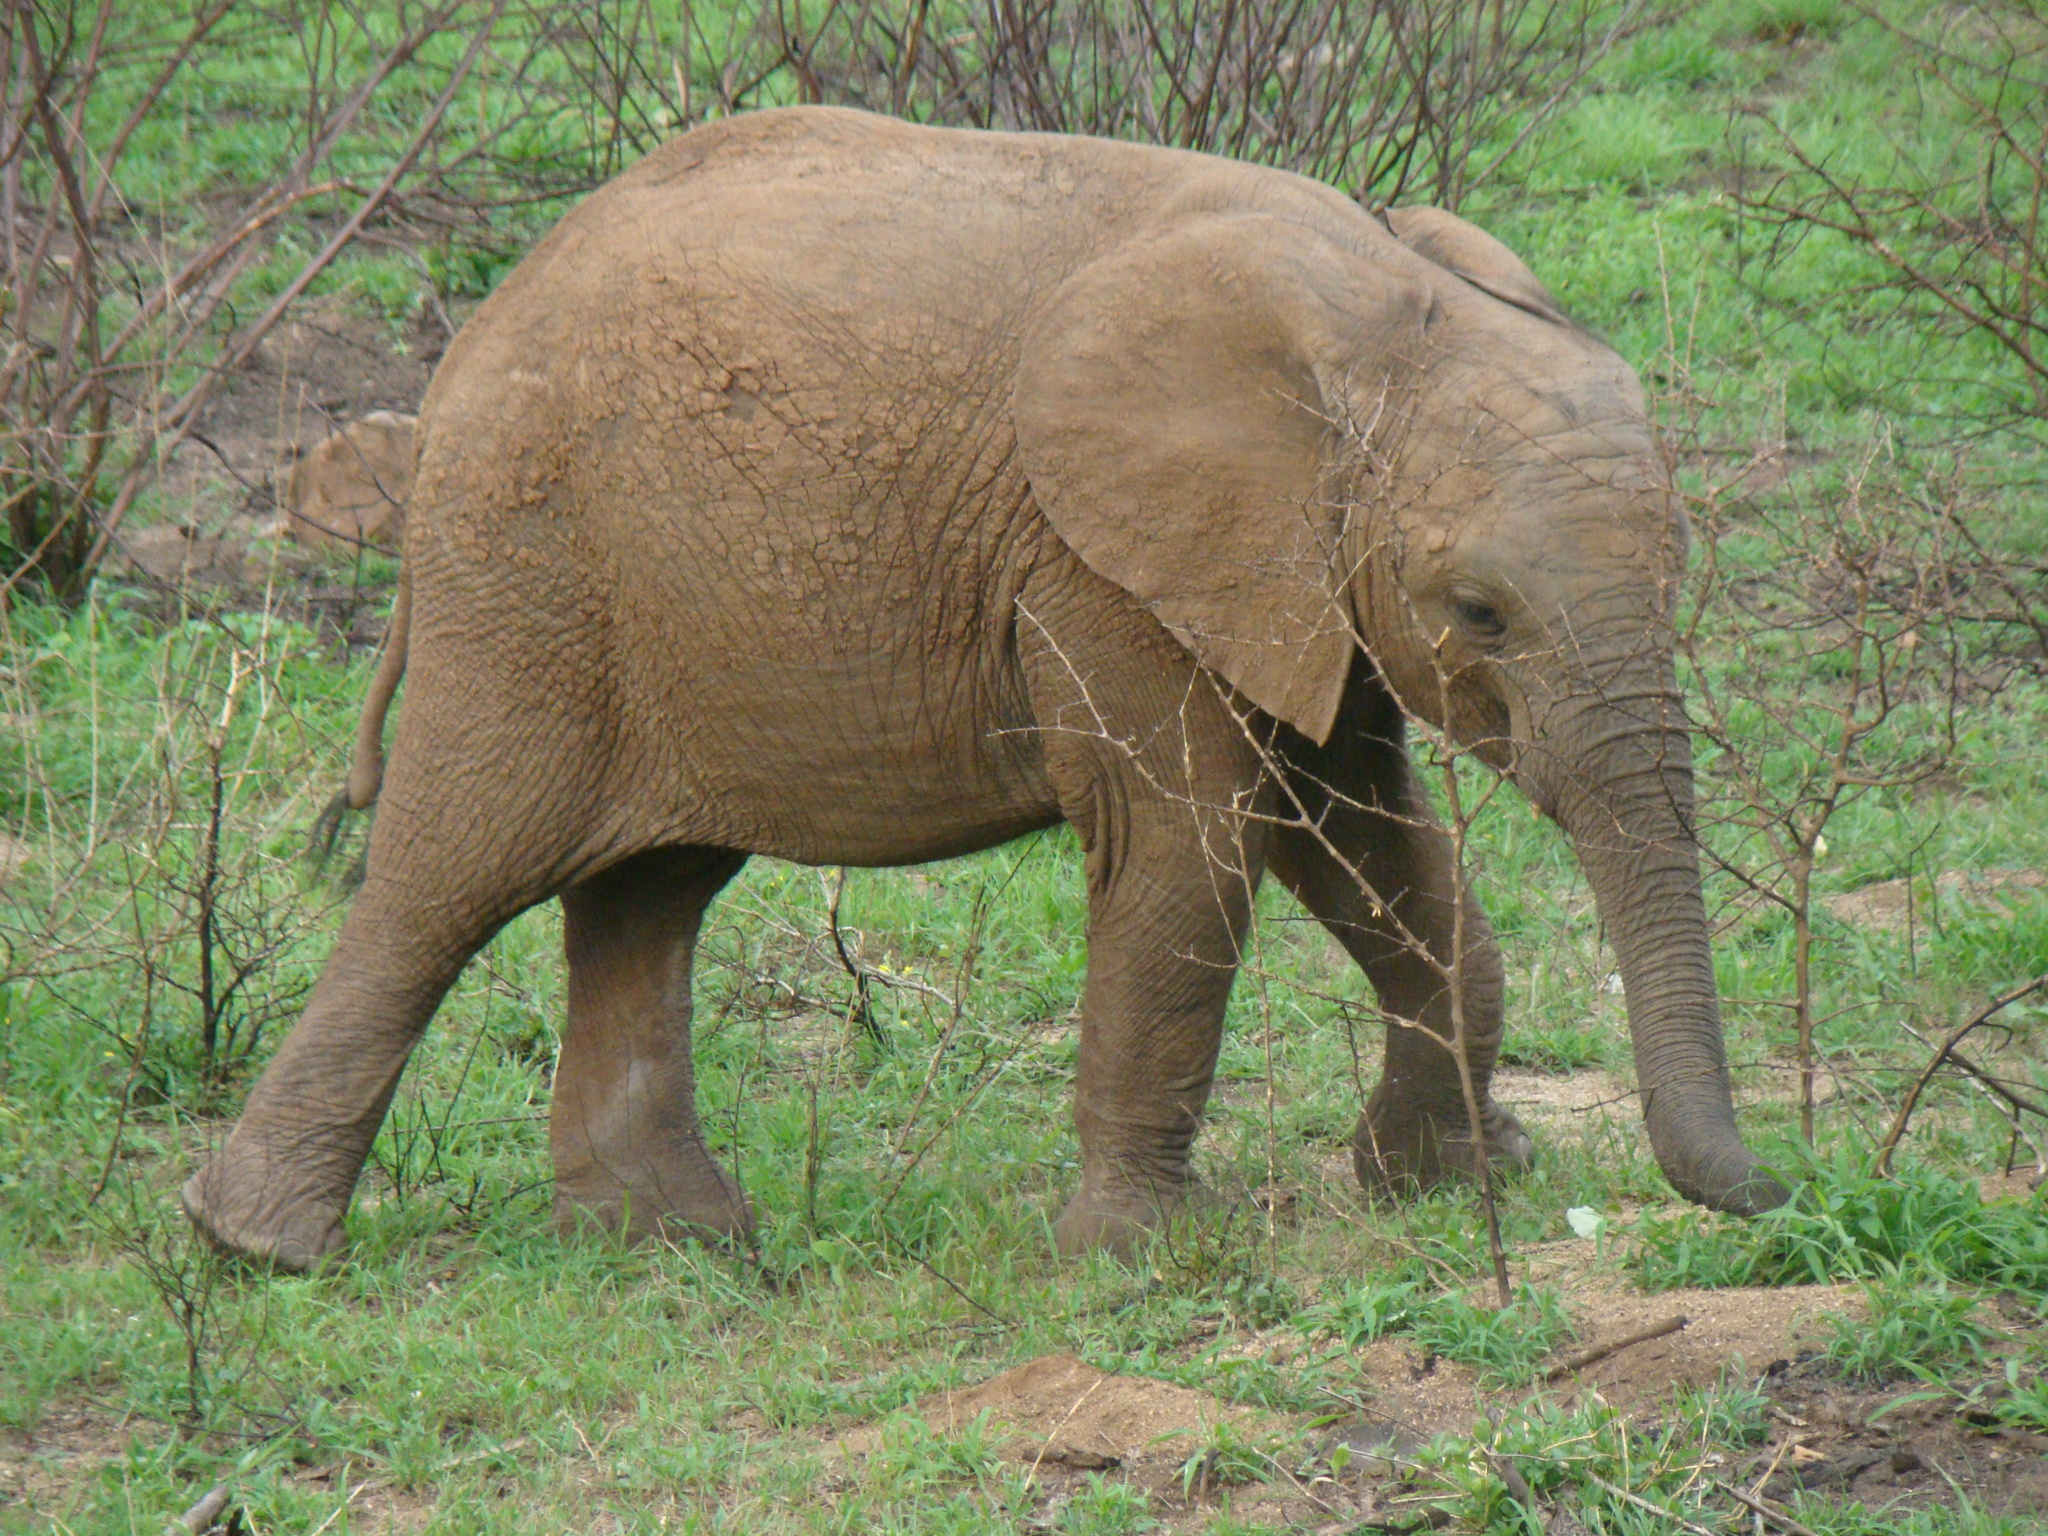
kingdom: Animalia
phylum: Chordata
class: Mammalia
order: Proboscidea
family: Elephantidae
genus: Loxodonta
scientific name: Loxodonta africana
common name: African elephant
